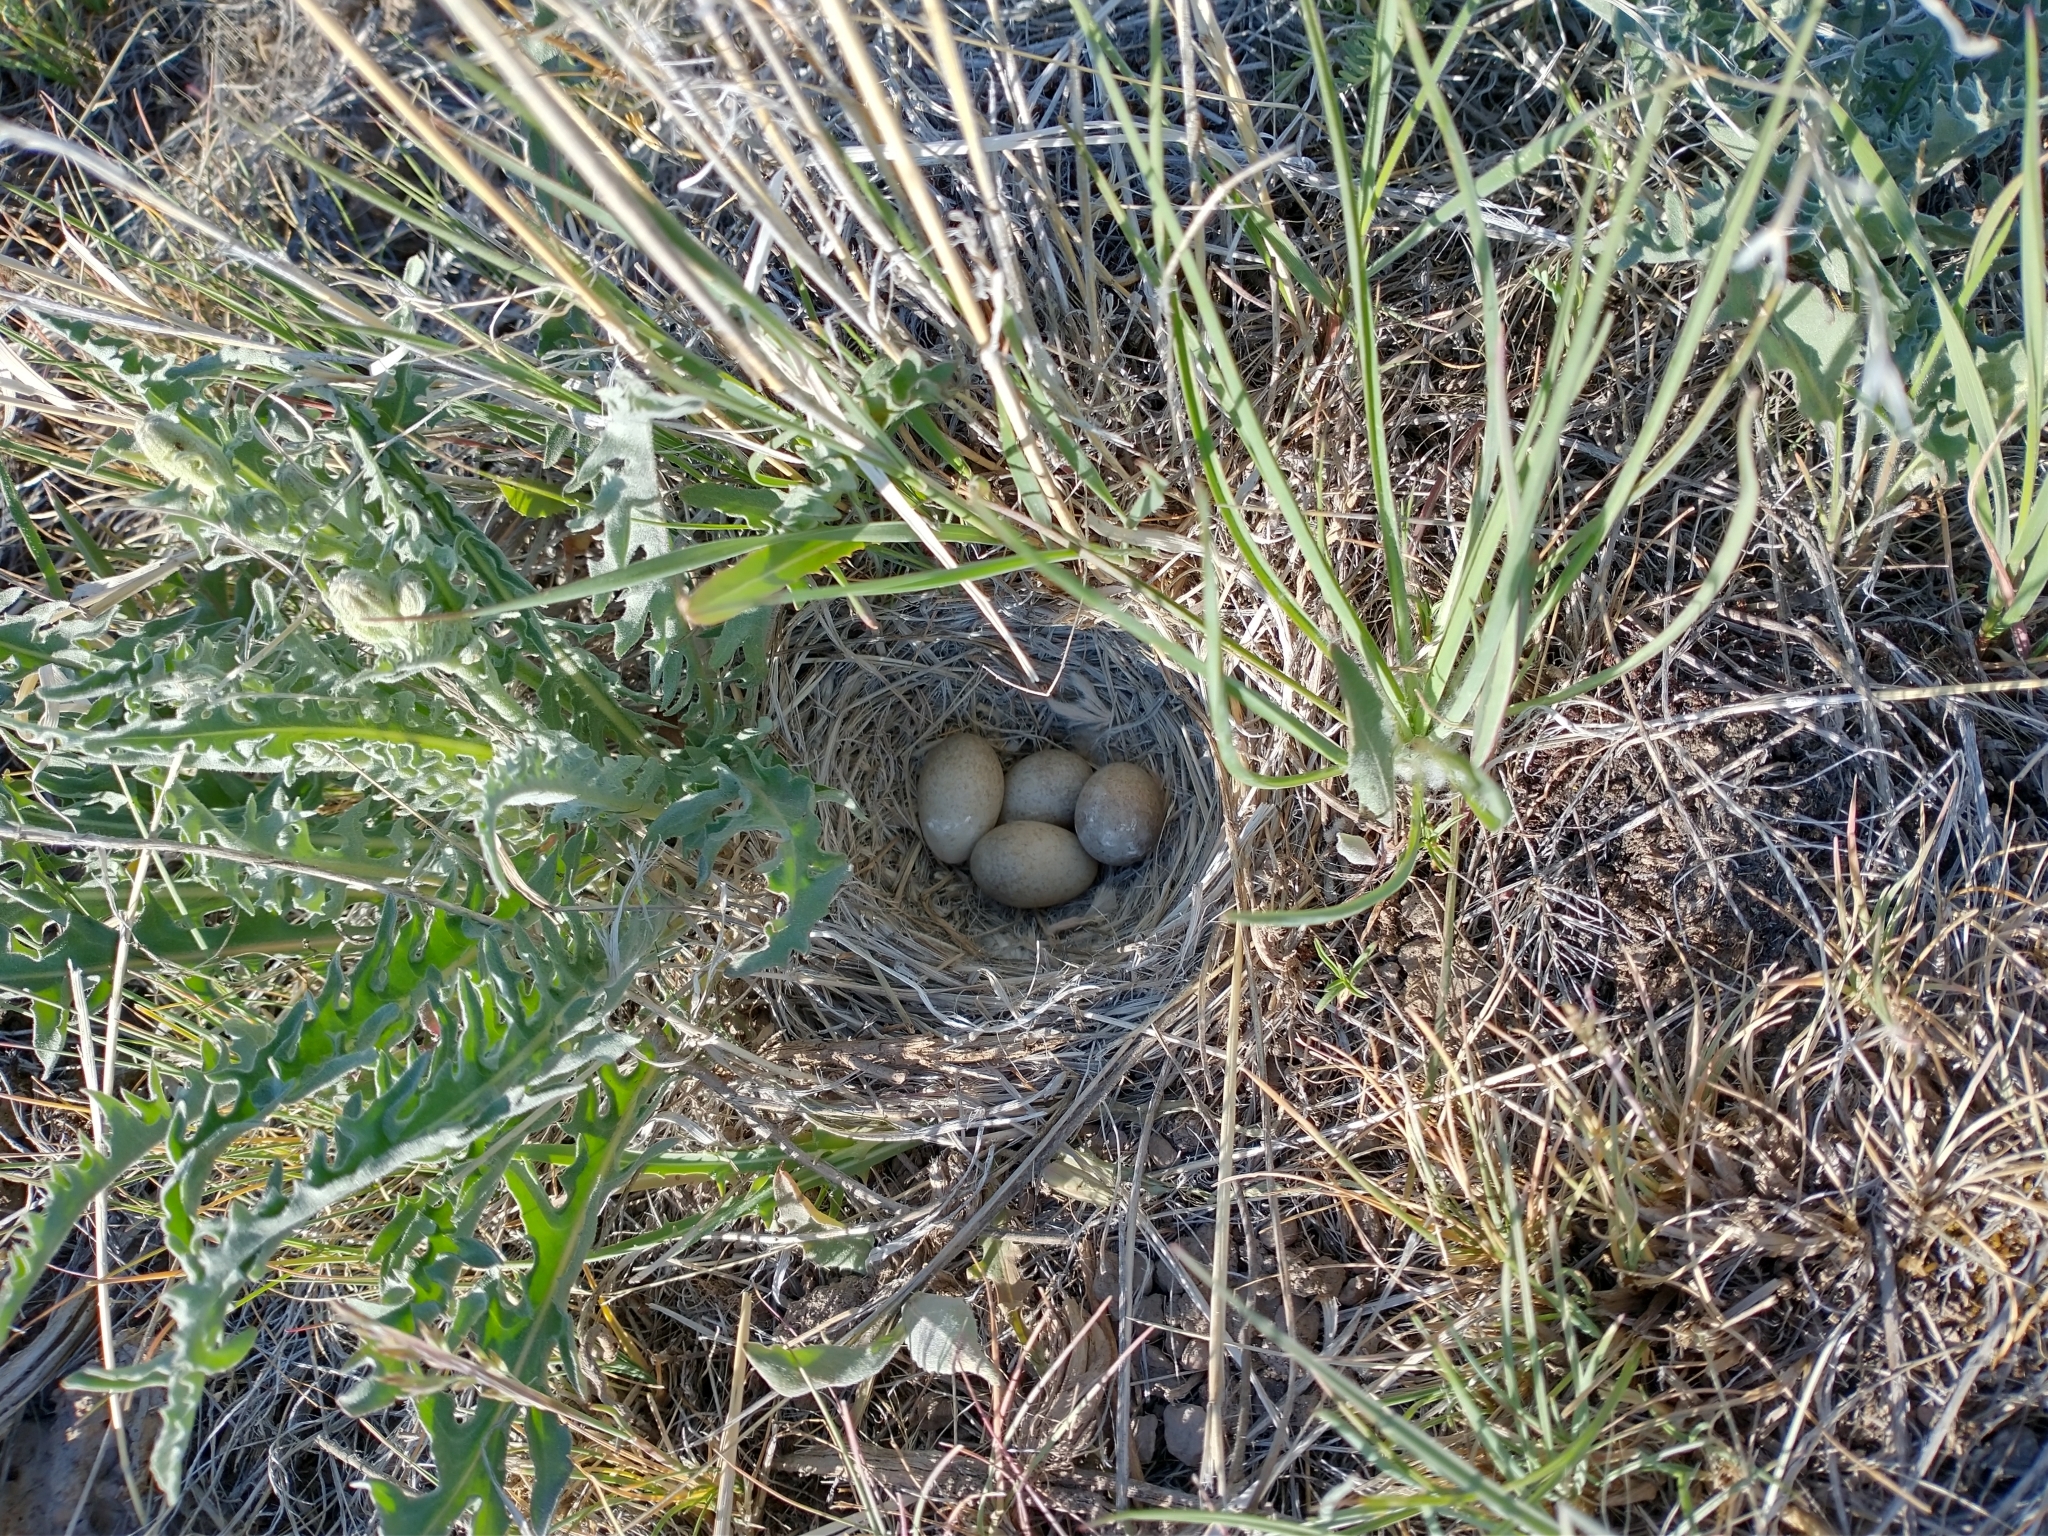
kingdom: Animalia
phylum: Chordata
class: Aves
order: Passeriformes
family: Alaudidae
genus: Eremophila
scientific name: Eremophila alpestris
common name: Horned lark
